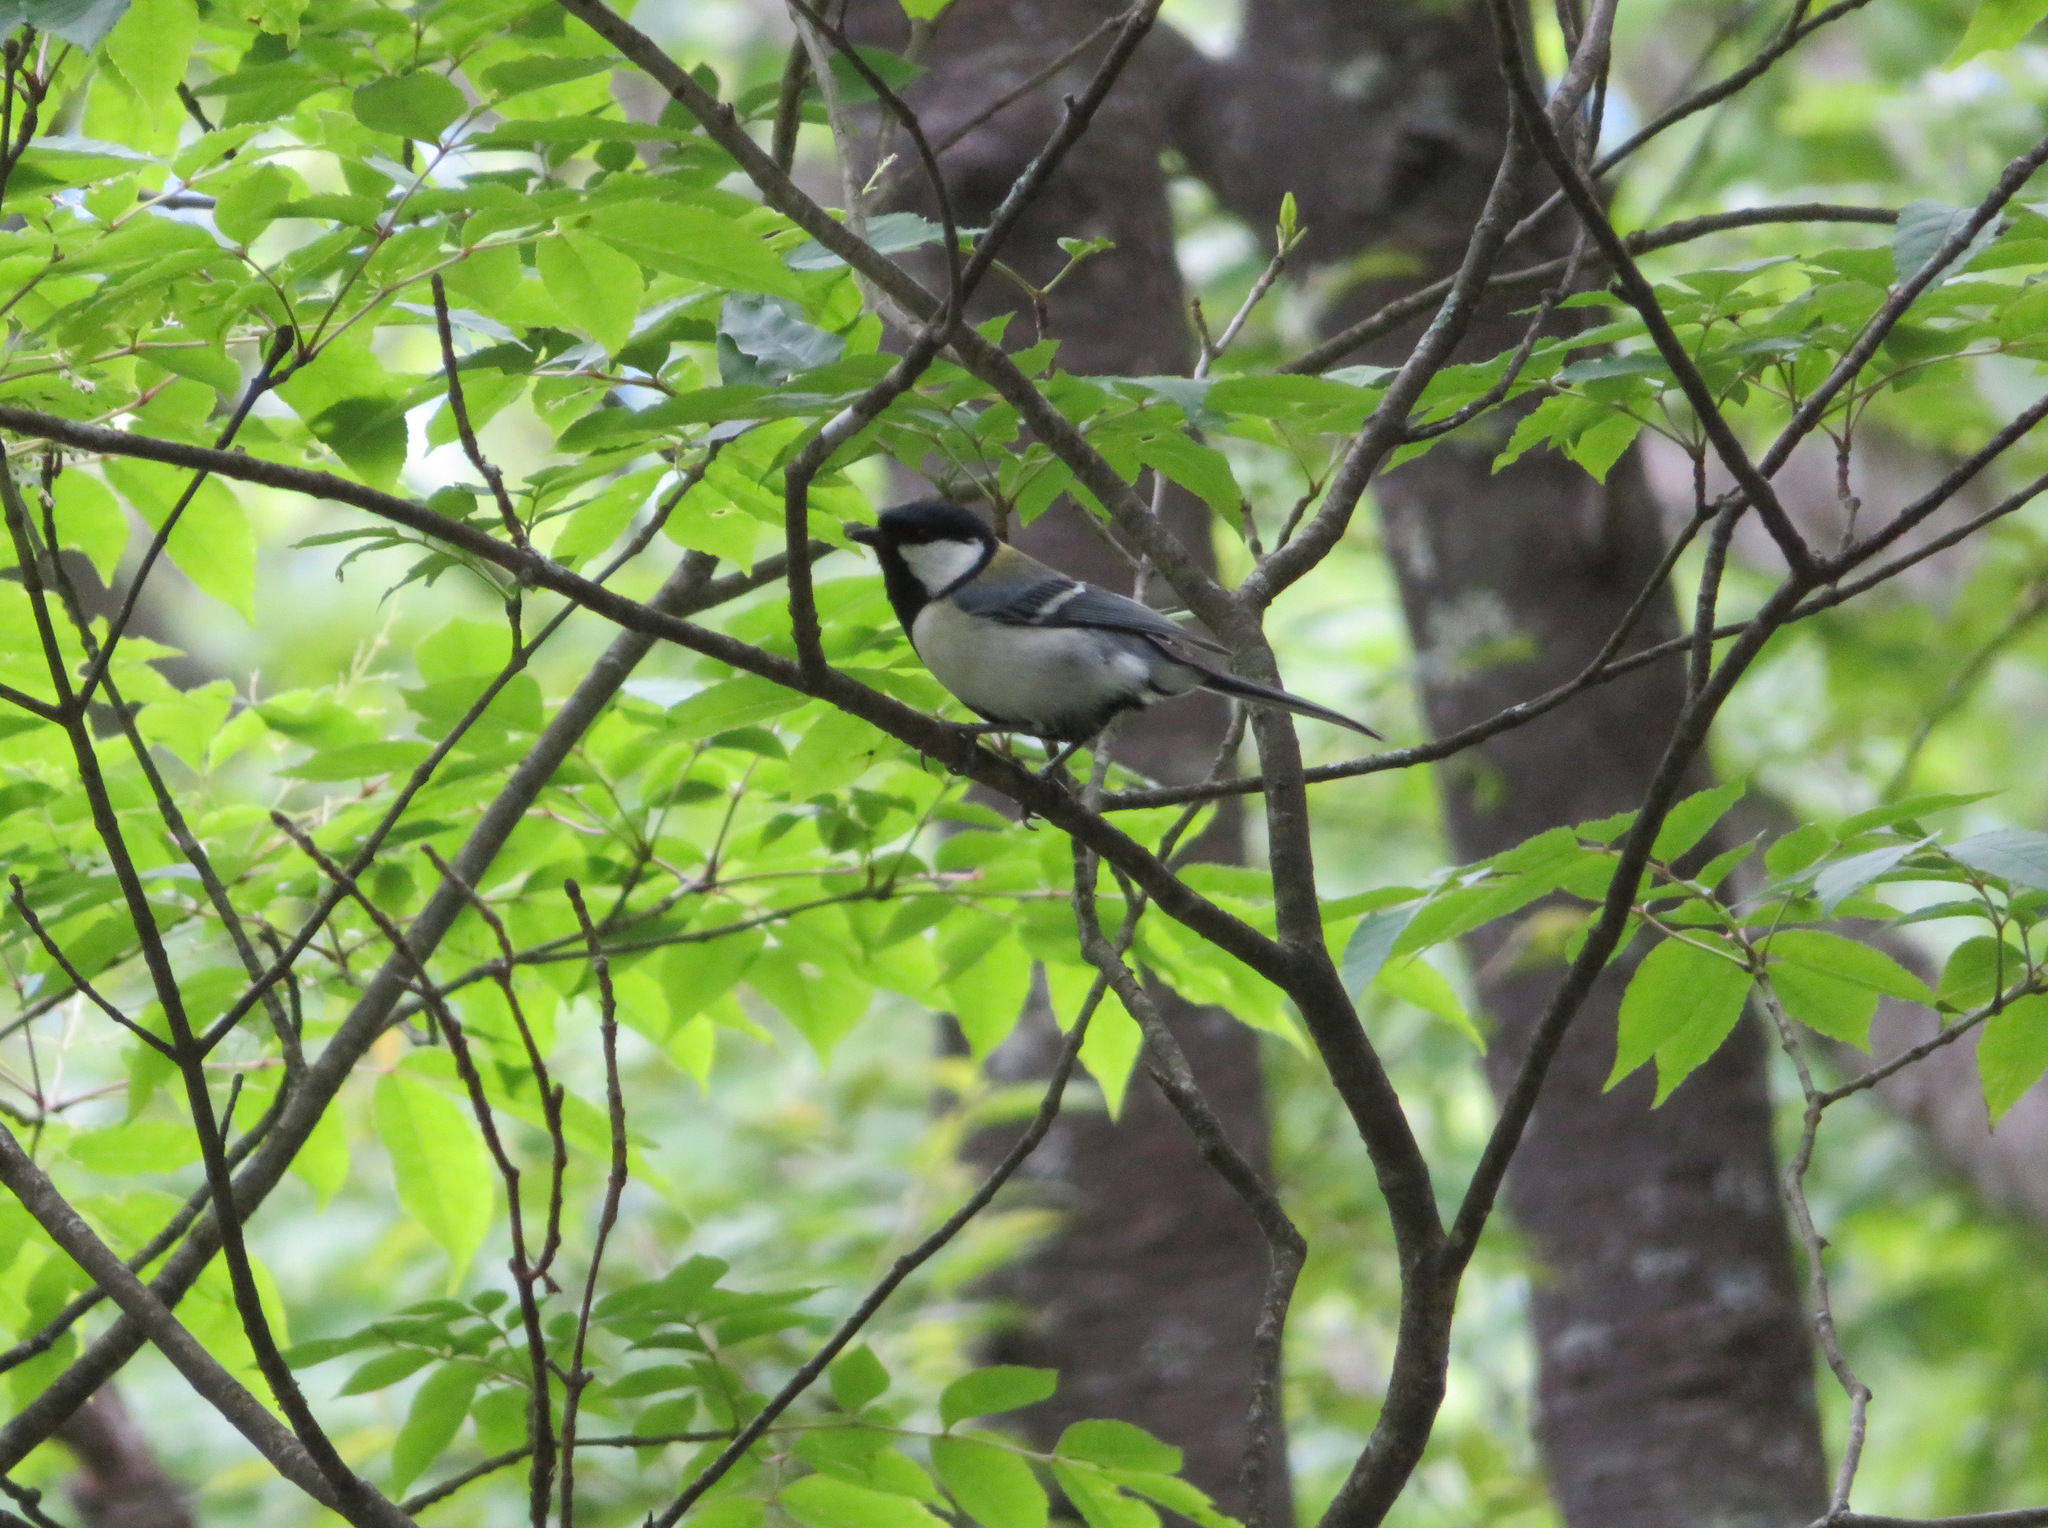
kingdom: Animalia
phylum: Chordata
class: Aves
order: Passeriformes
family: Paridae
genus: Parus
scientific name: Parus minor
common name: Japanese tit
